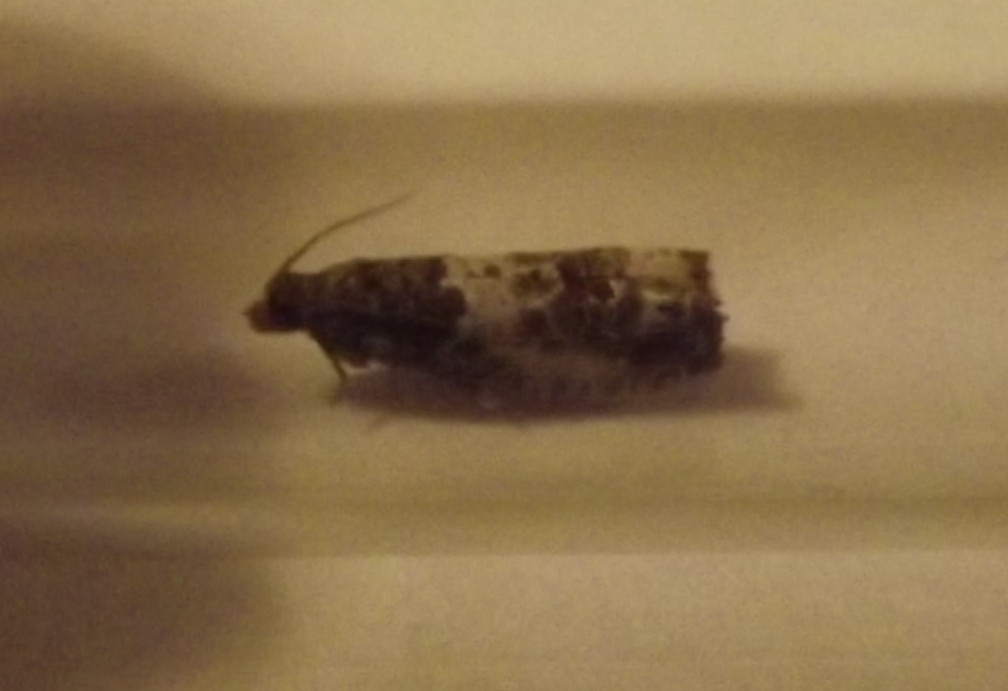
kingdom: Animalia
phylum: Arthropoda
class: Insecta
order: Lepidoptera
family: Tortricidae
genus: Notocelia
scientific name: Notocelia rosaecolana
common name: Common rose bell
